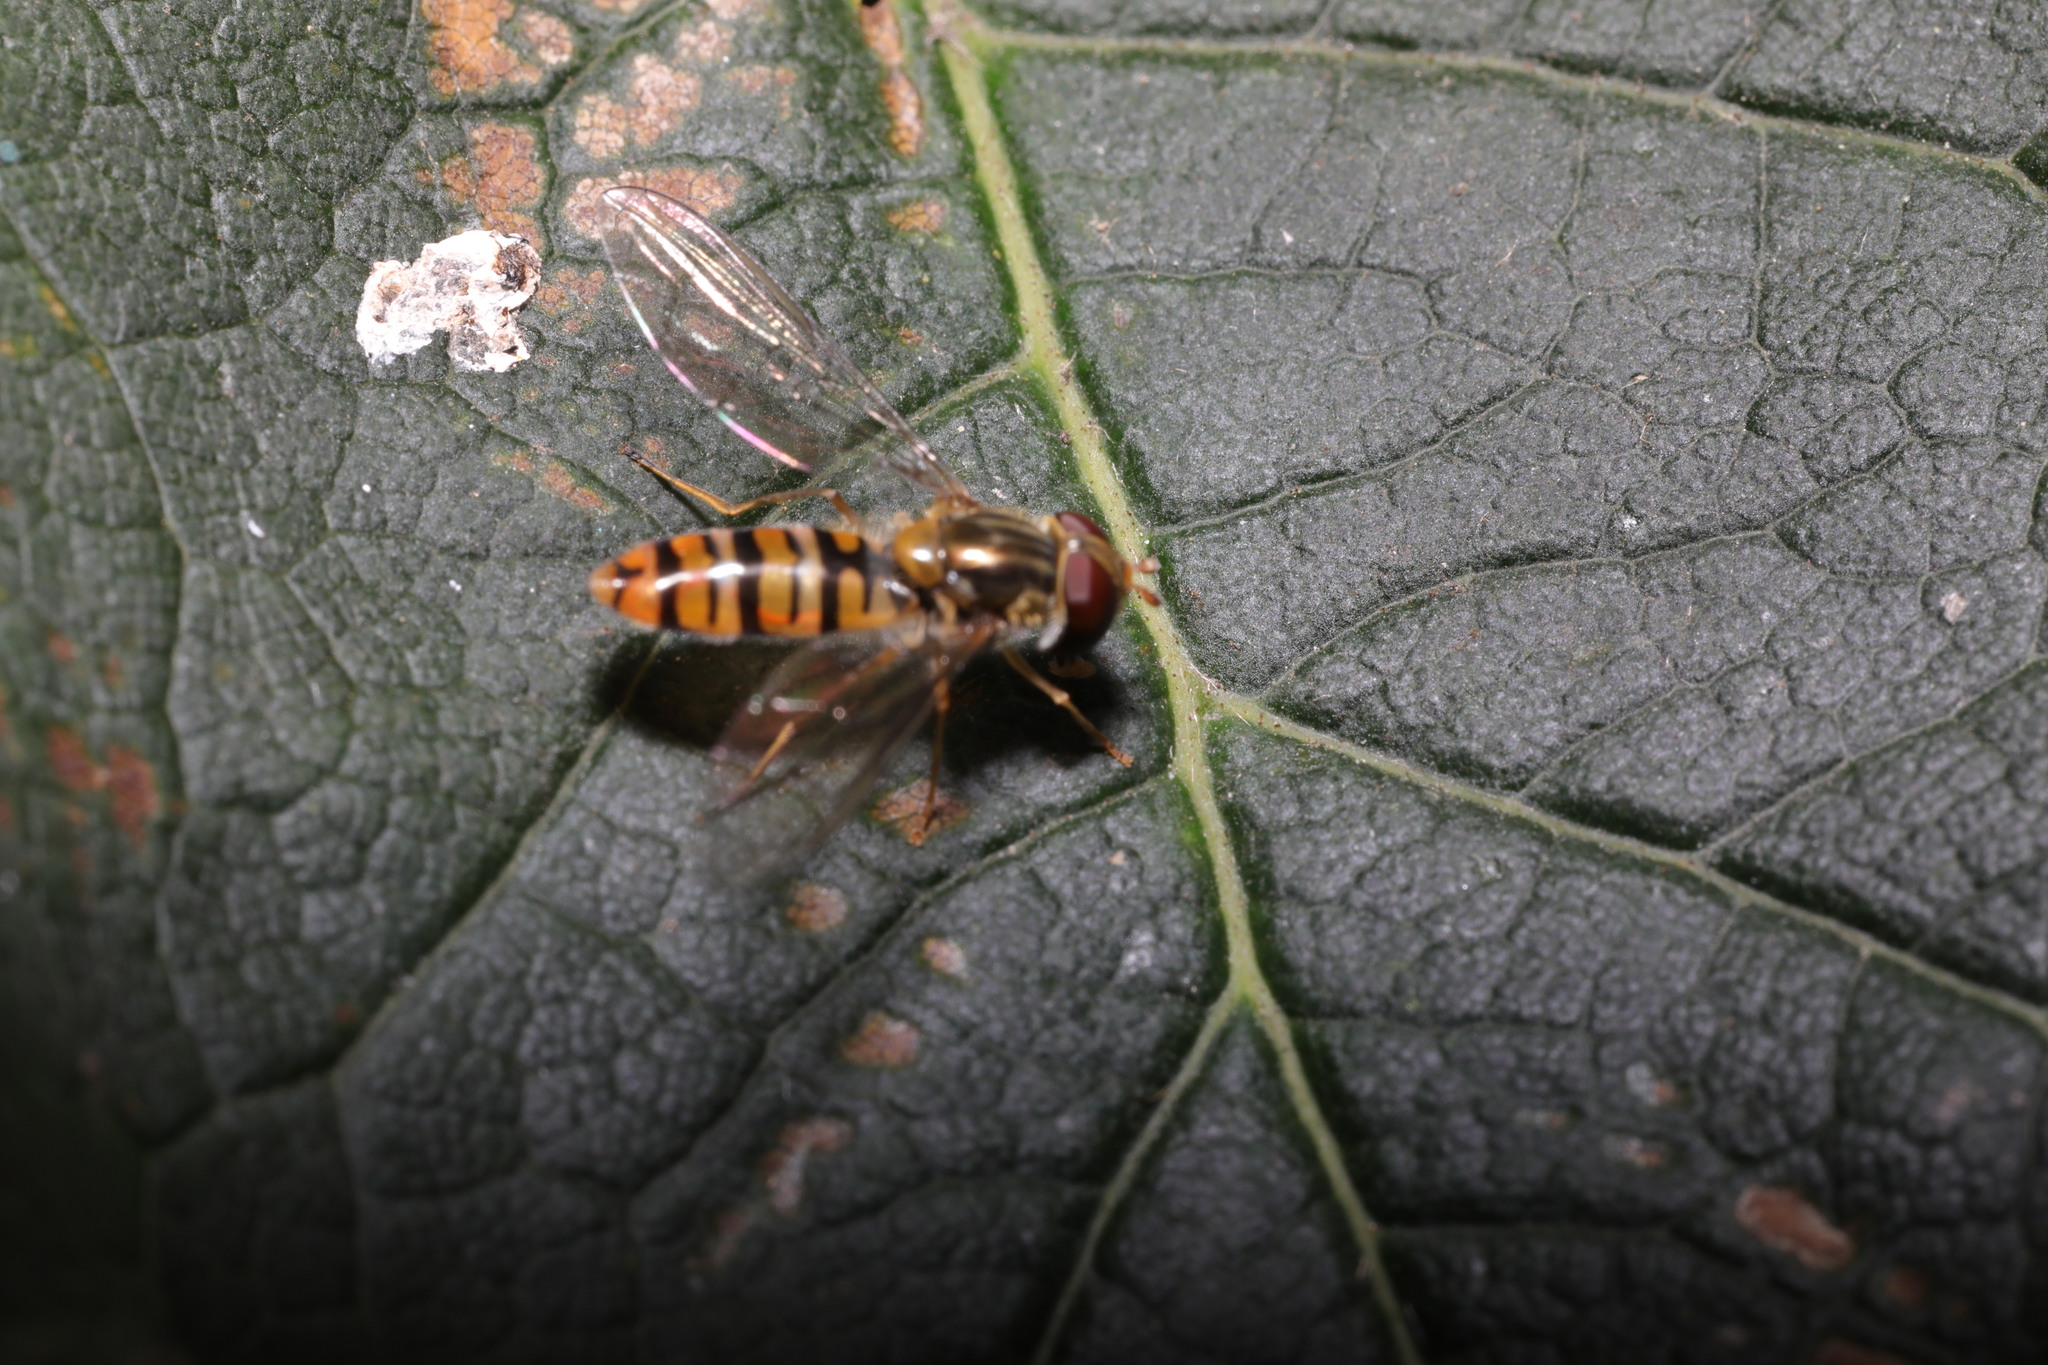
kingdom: Animalia
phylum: Arthropoda
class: Insecta
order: Diptera
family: Syrphidae
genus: Episyrphus
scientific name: Episyrphus balteatus
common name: Marmalade hoverfly
